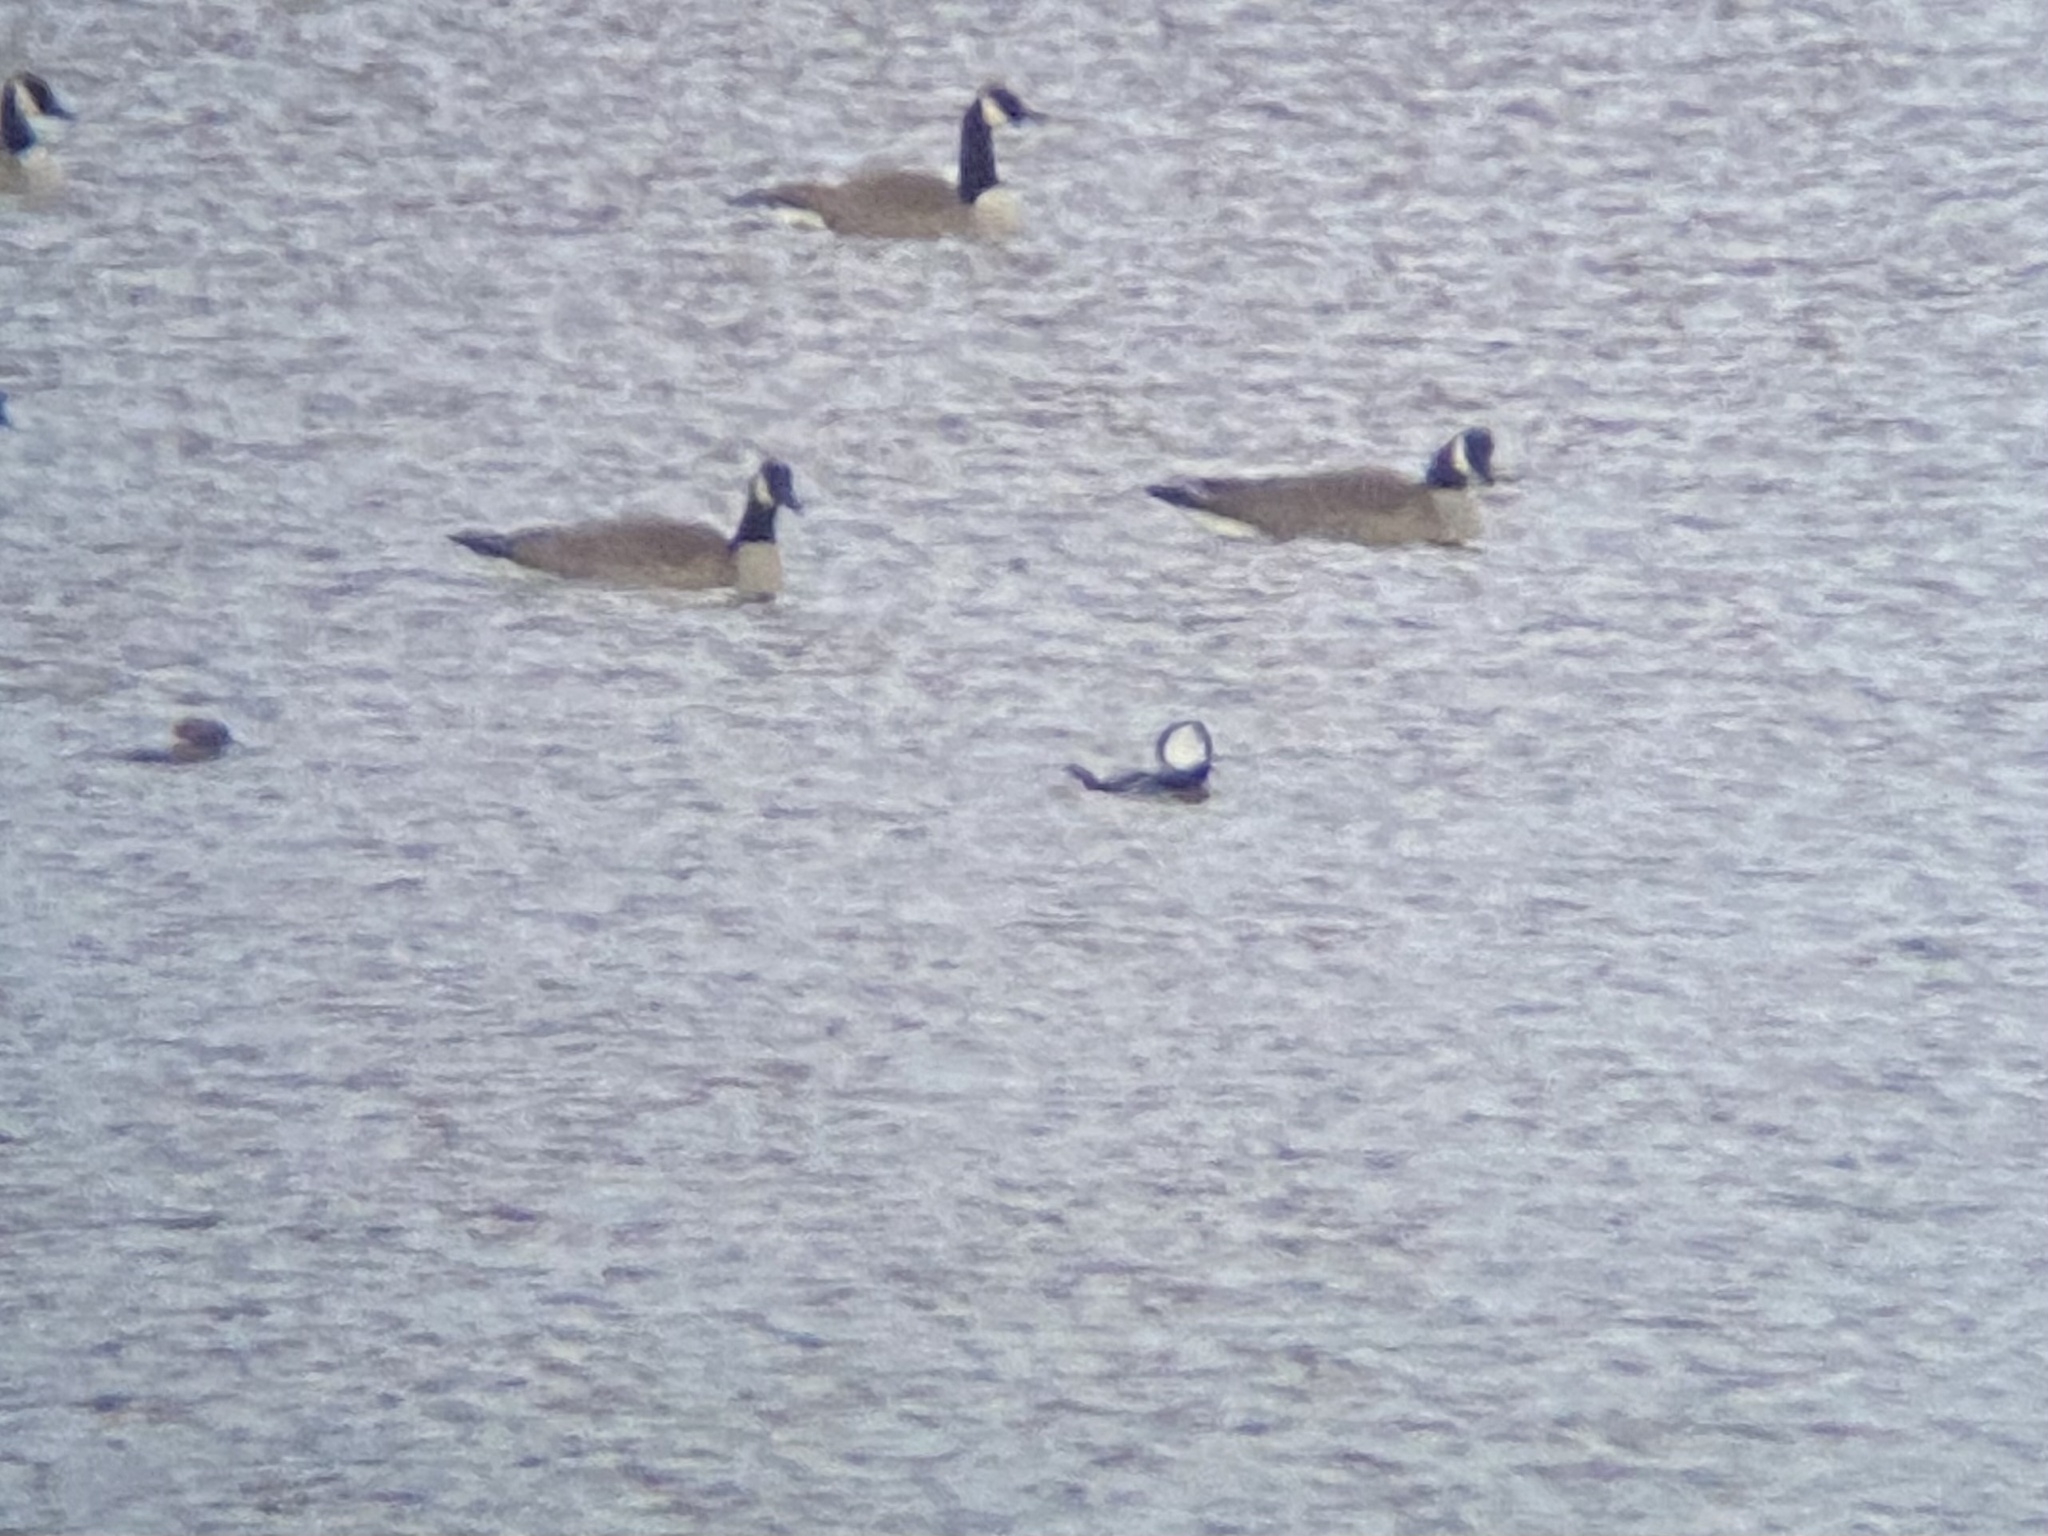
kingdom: Animalia
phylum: Chordata
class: Aves
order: Anseriformes
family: Anatidae
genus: Lophodytes
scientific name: Lophodytes cucullatus
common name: Hooded merganser
